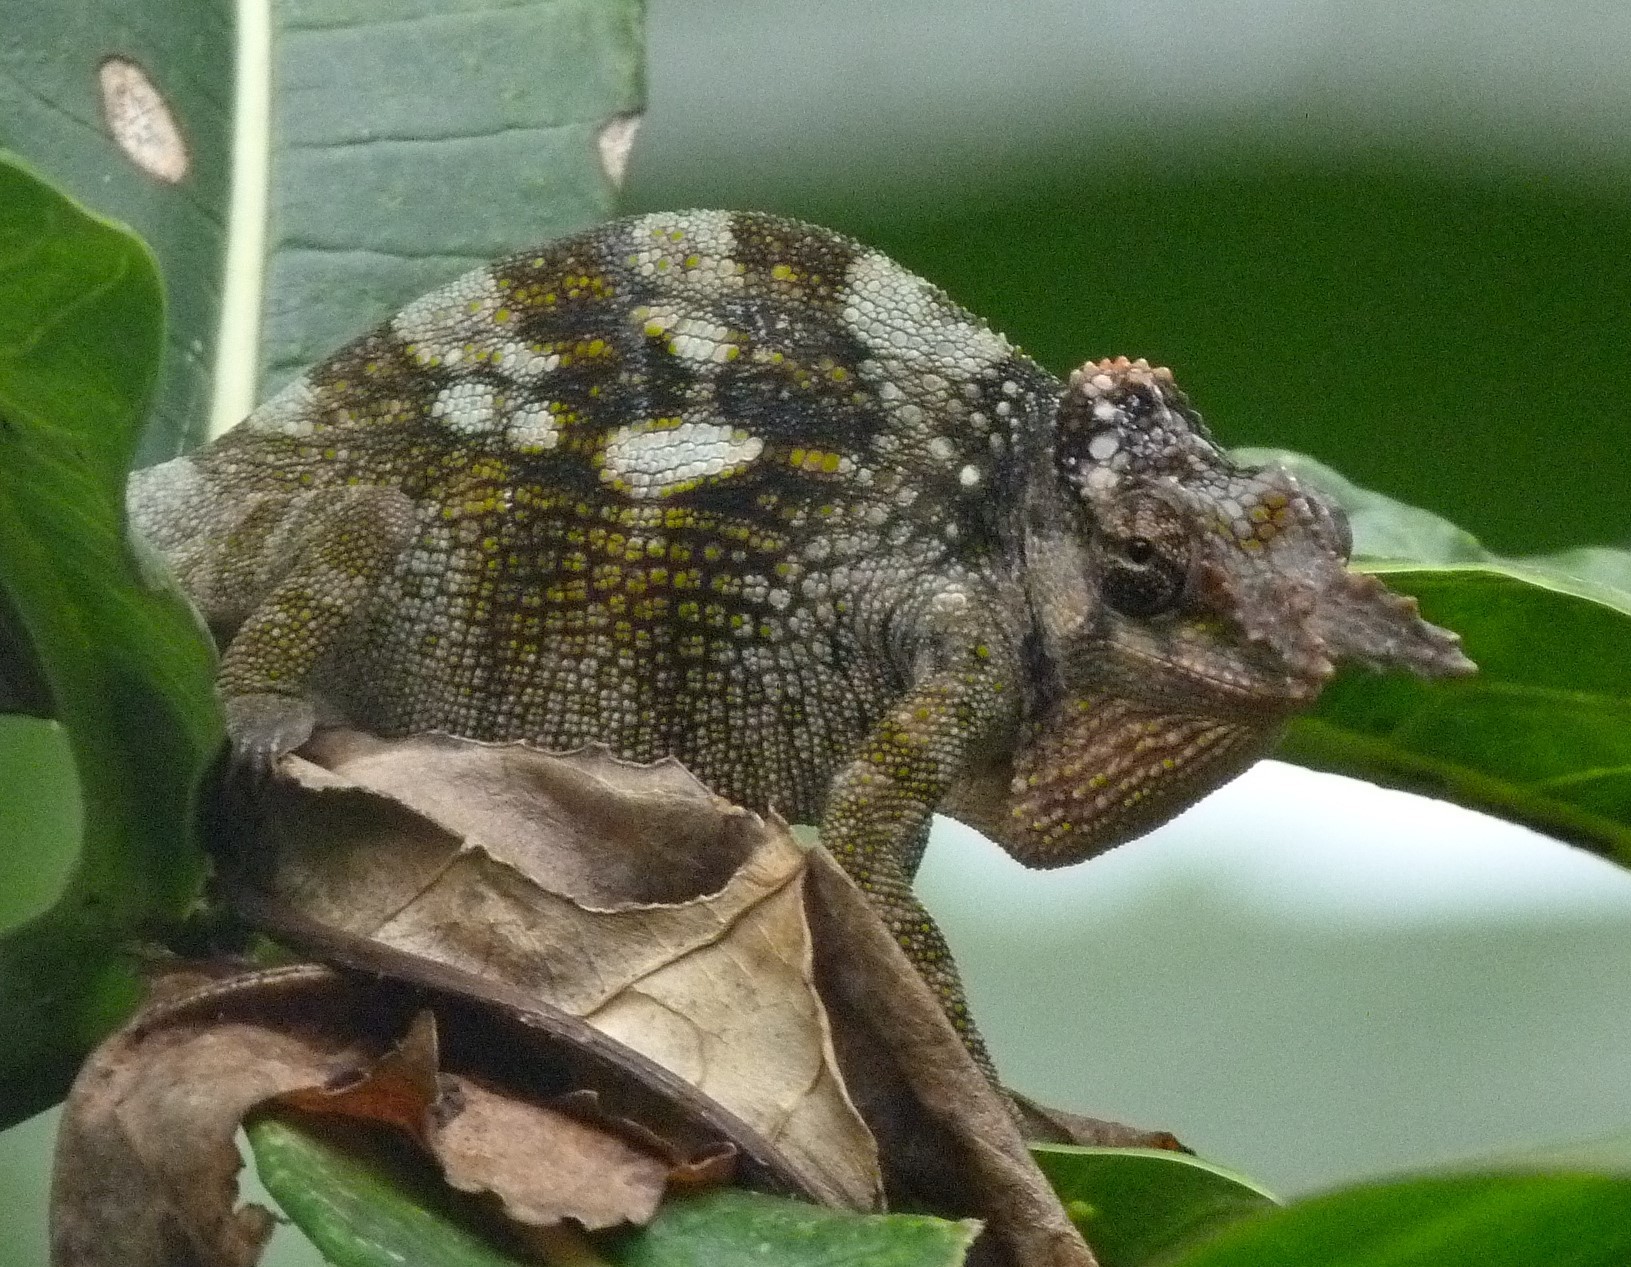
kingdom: Animalia
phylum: Chordata
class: Squamata
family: Chamaeleonidae
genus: Kinyongia
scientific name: Kinyongia tavetana
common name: Kilimanjaro blade-horned chameleon
